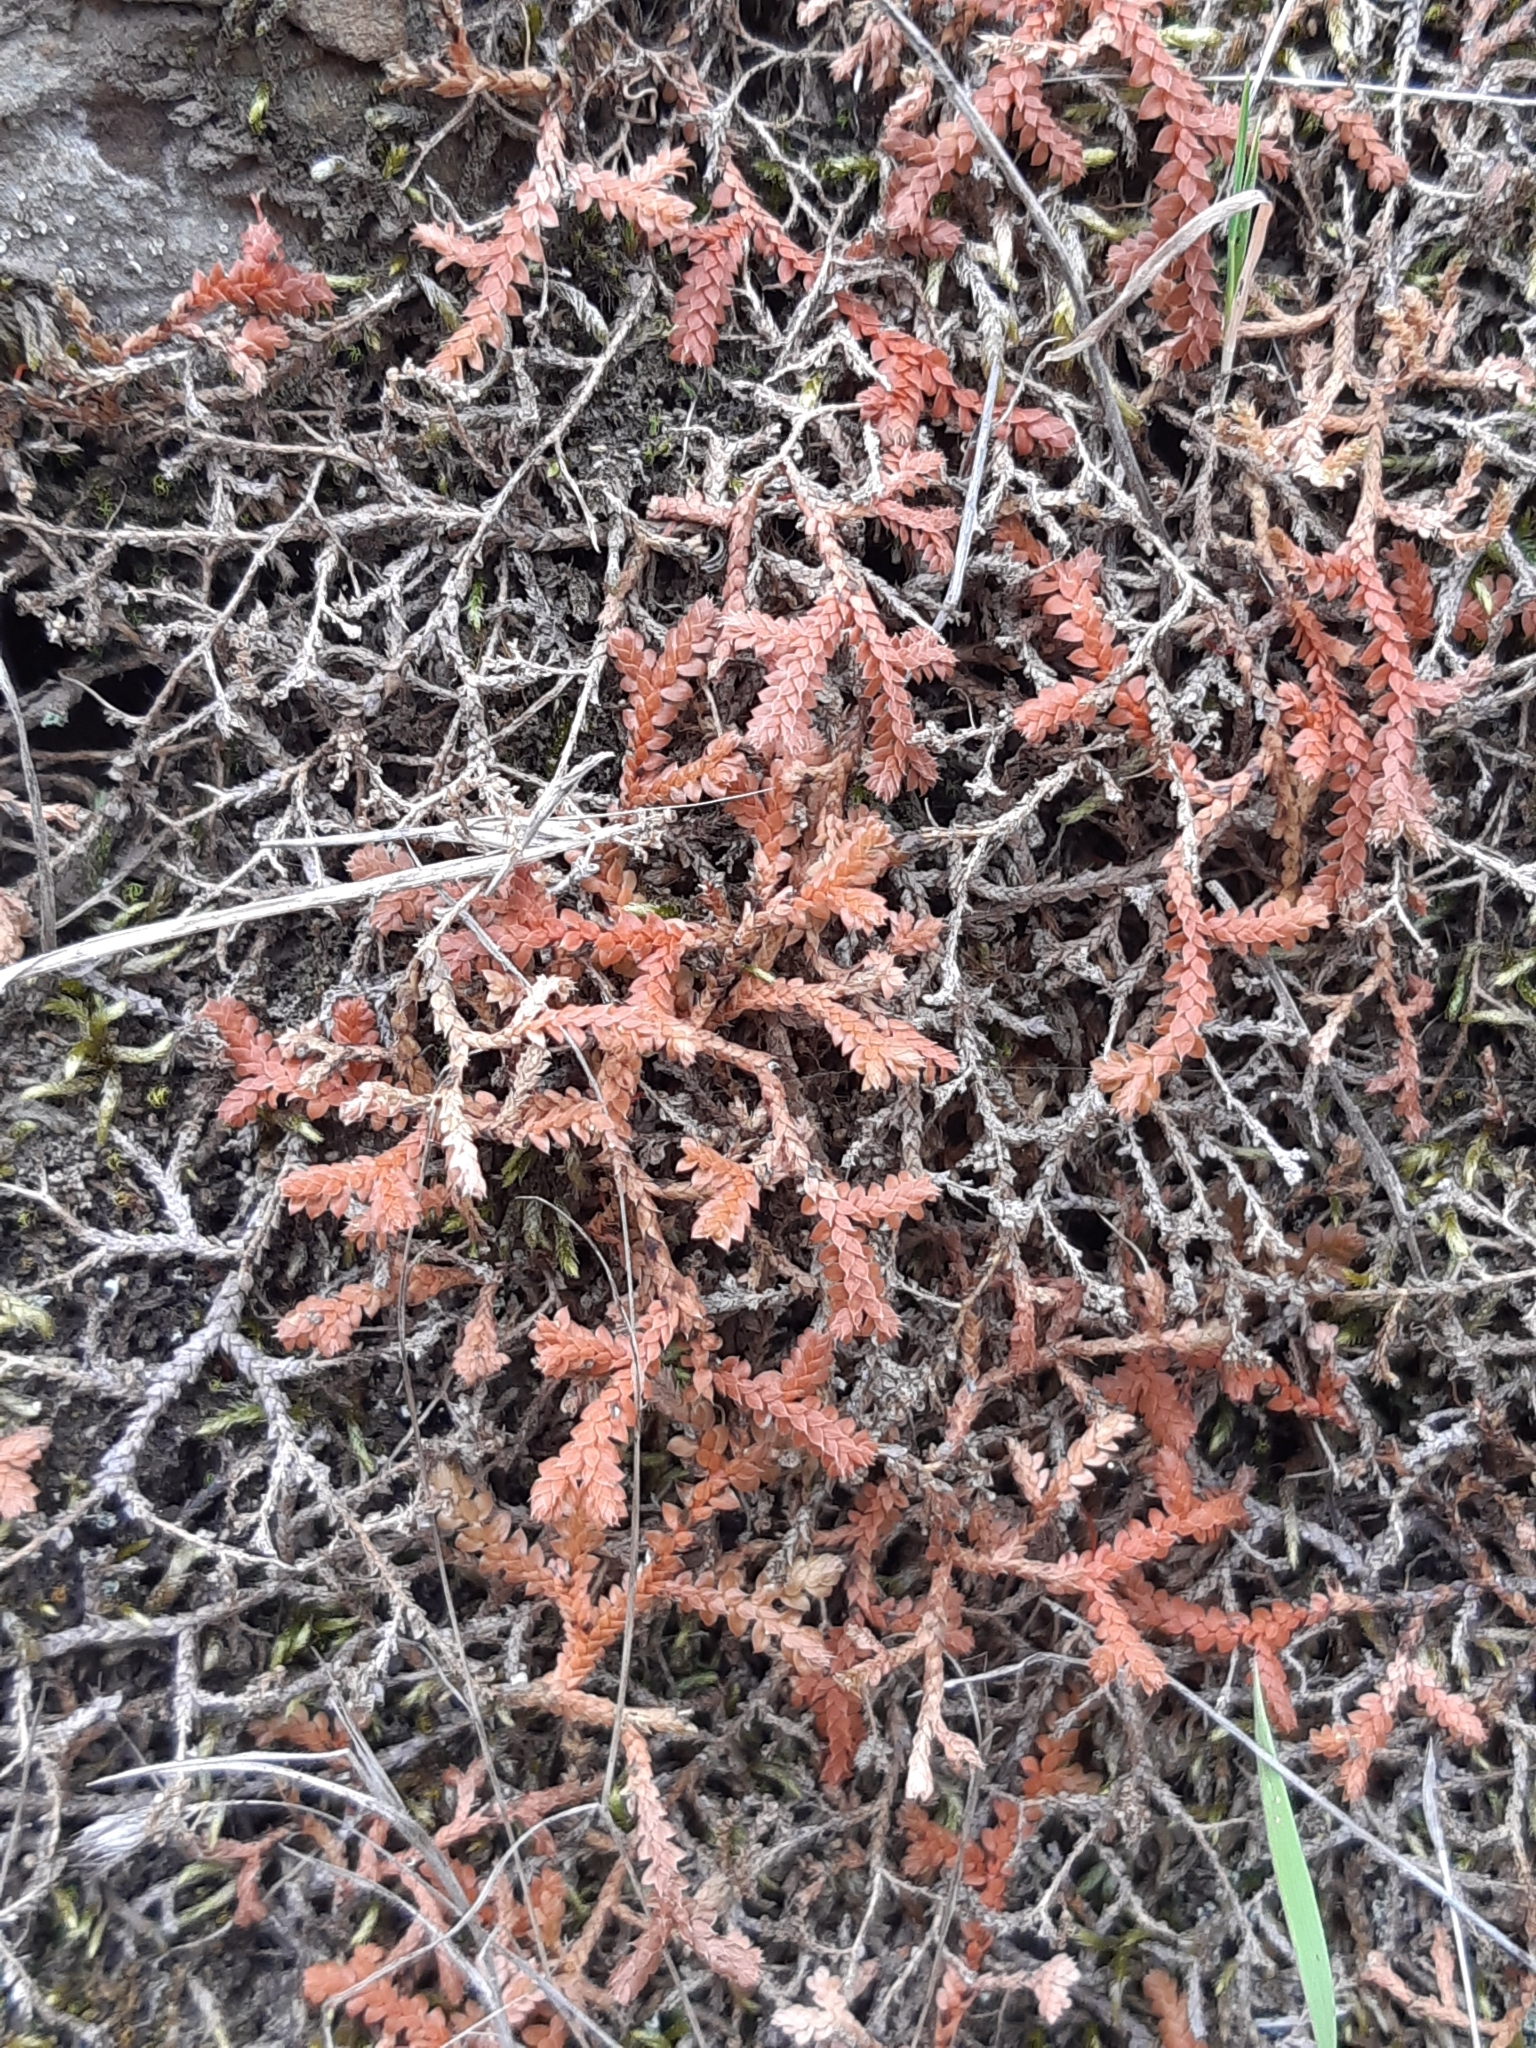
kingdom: Plantae
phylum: Tracheophyta
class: Lycopodiopsida
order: Selaginellales
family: Selaginellaceae
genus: Selaginella
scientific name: Selaginella denticulata
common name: Toothed-leaved clubmoss
